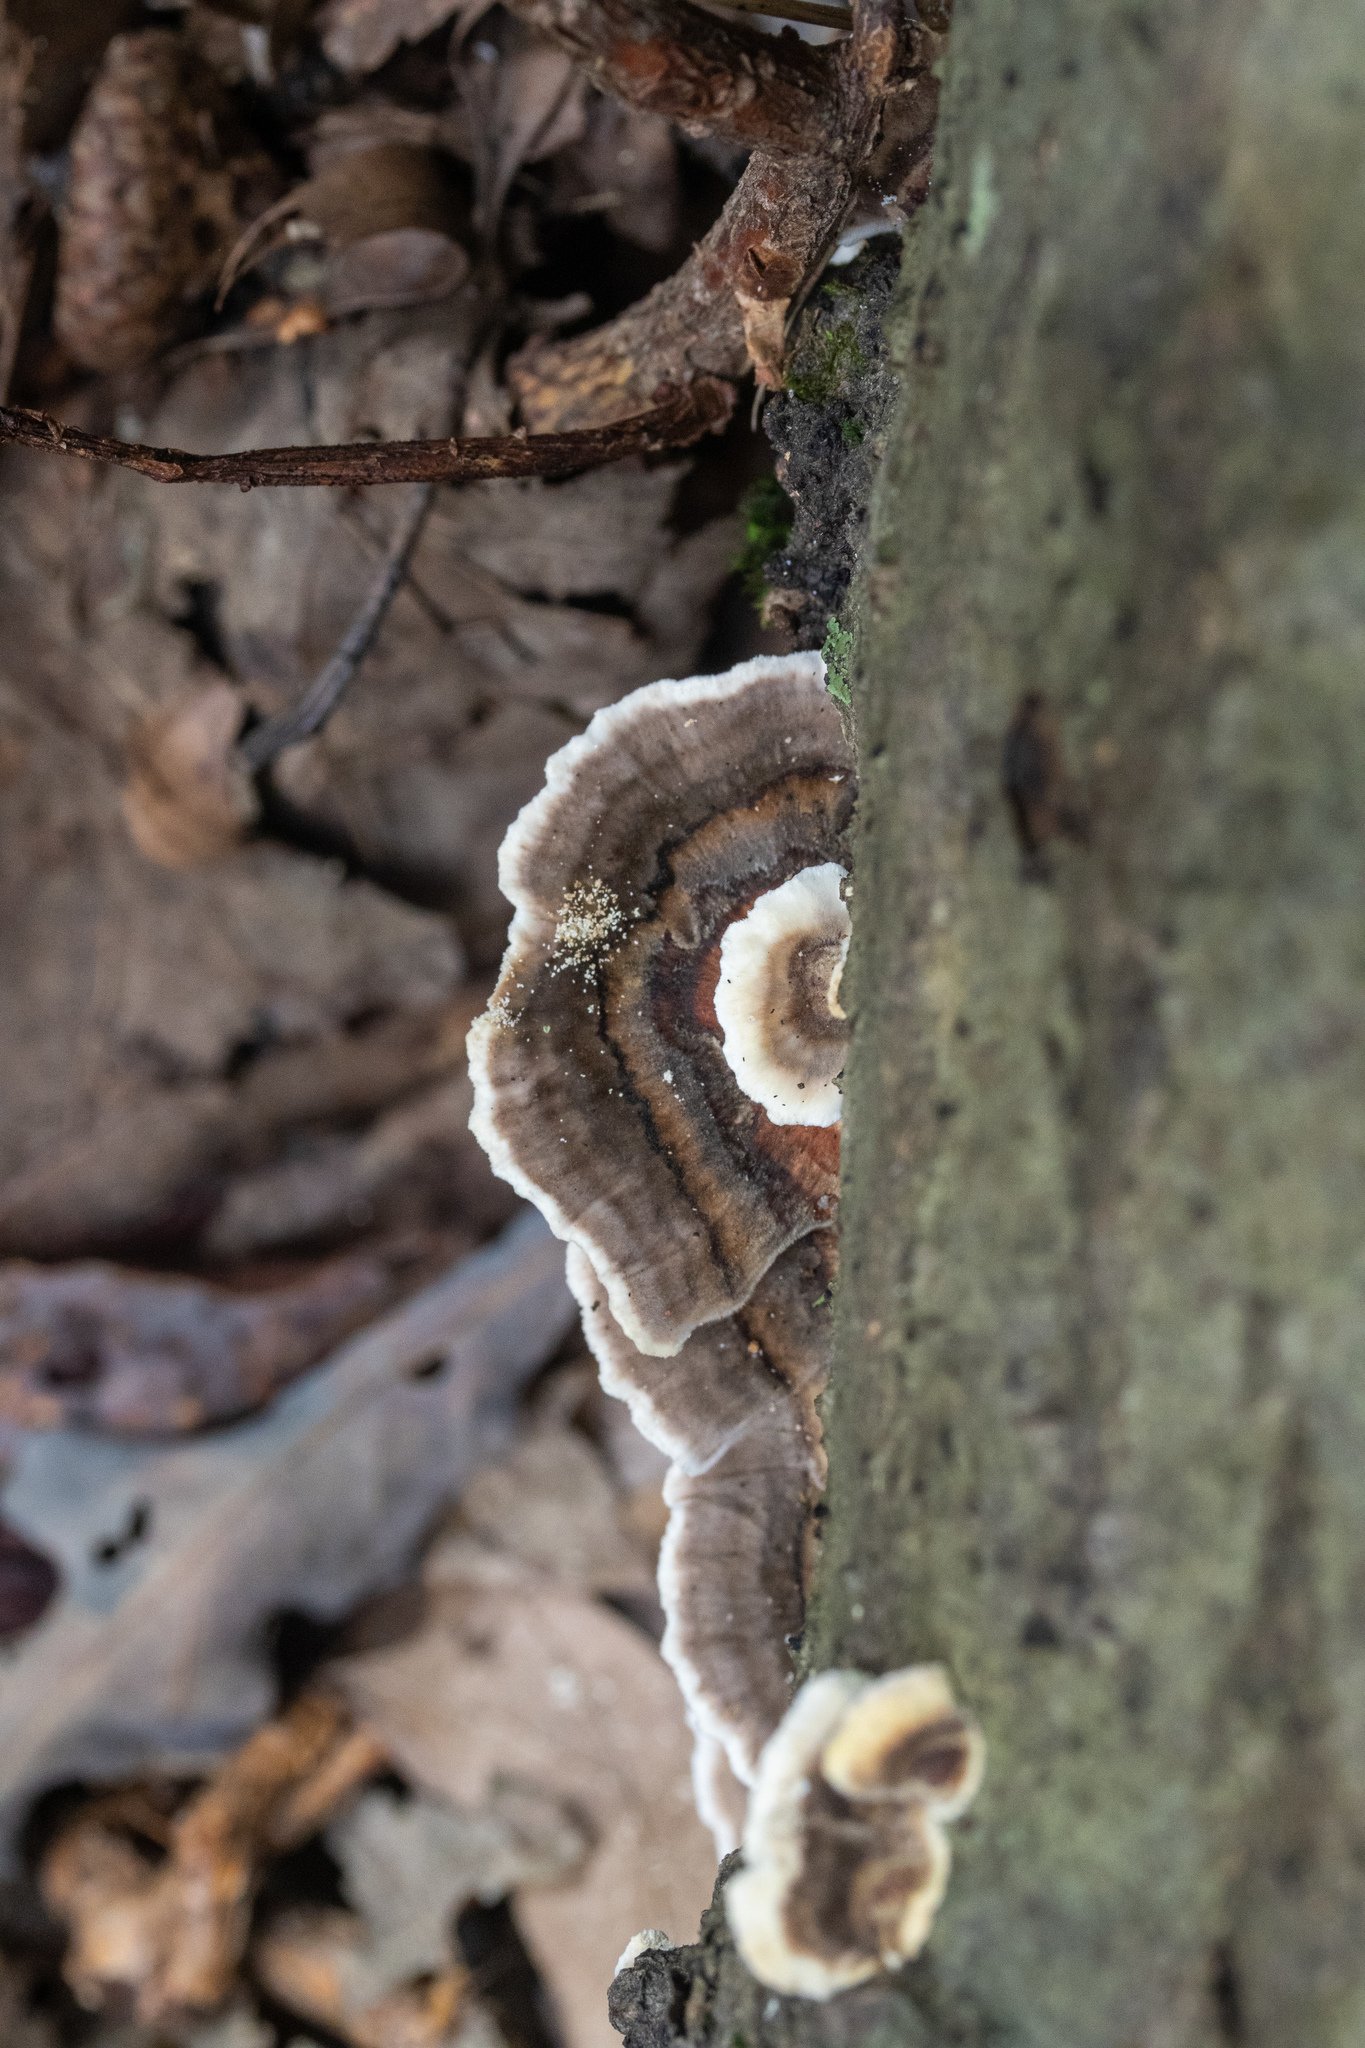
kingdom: Fungi
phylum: Basidiomycota
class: Agaricomycetes
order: Polyporales
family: Polyporaceae
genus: Trametes
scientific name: Trametes versicolor
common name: Turkeytail
